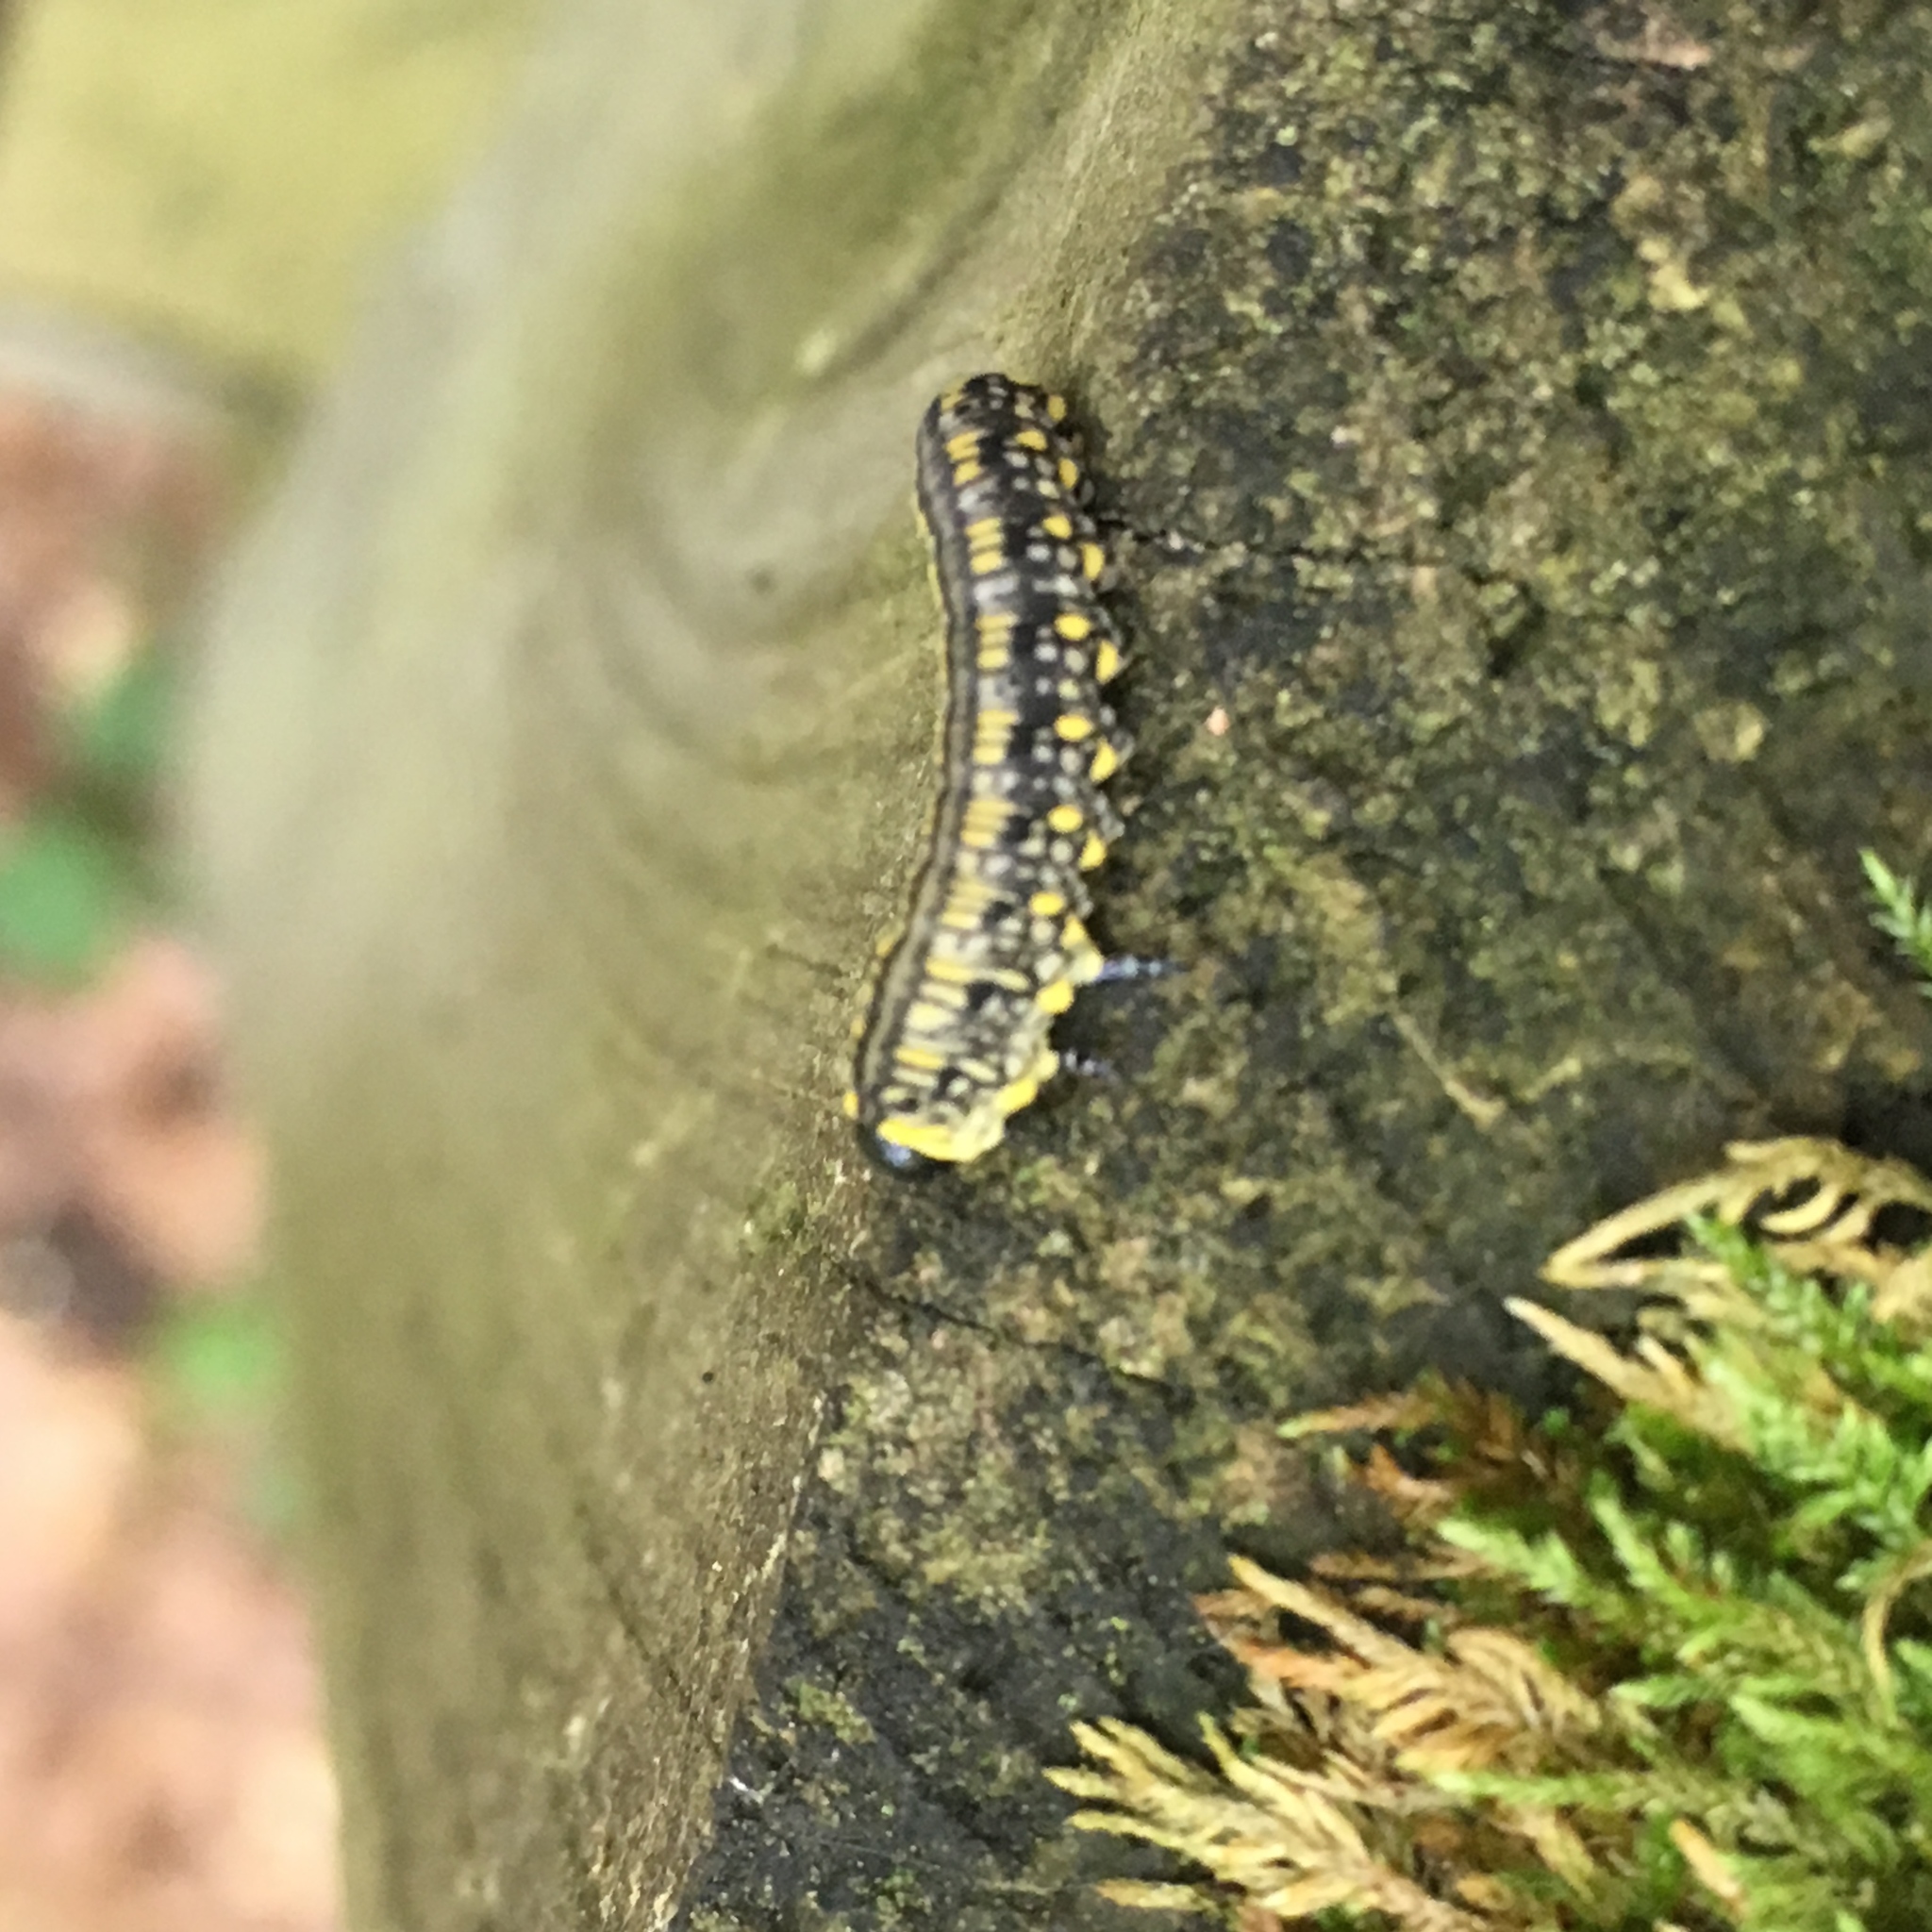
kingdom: Animalia
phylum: Arthropoda
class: Insecta
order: Hymenoptera
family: Diprionidae
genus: Diprion
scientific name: Diprion similis
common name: Pine sawfly
